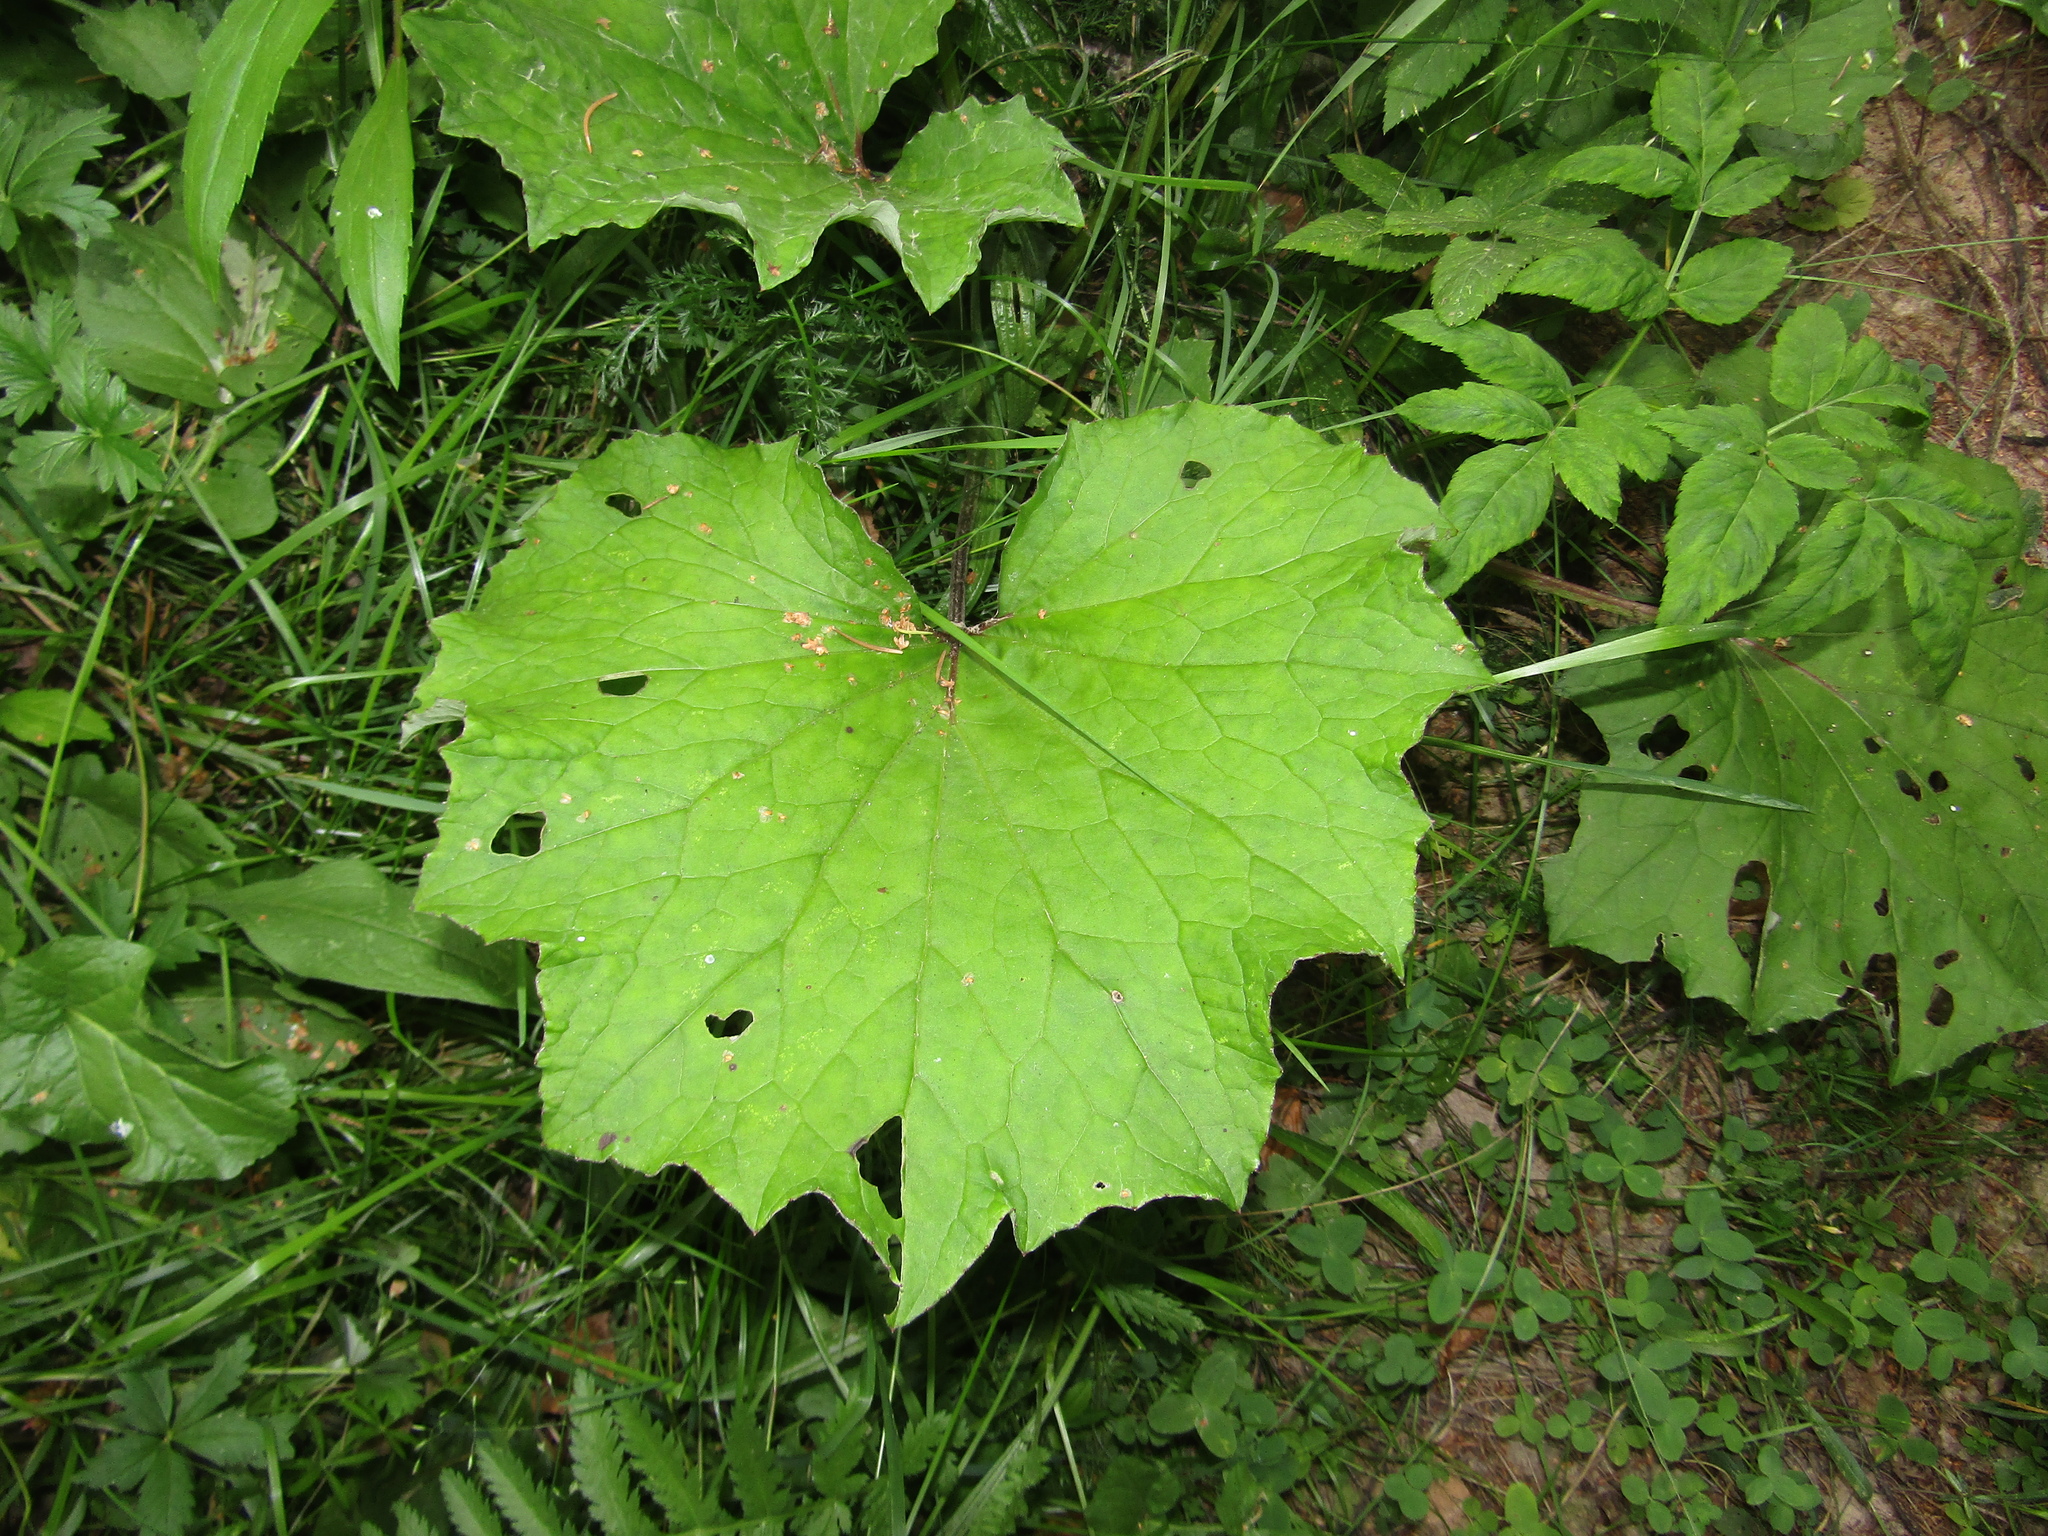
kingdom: Plantae
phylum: Tracheophyta
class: Magnoliopsida
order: Asterales
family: Asteraceae
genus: Tussilago
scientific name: Tussilago farfara
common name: Coltsfoot
